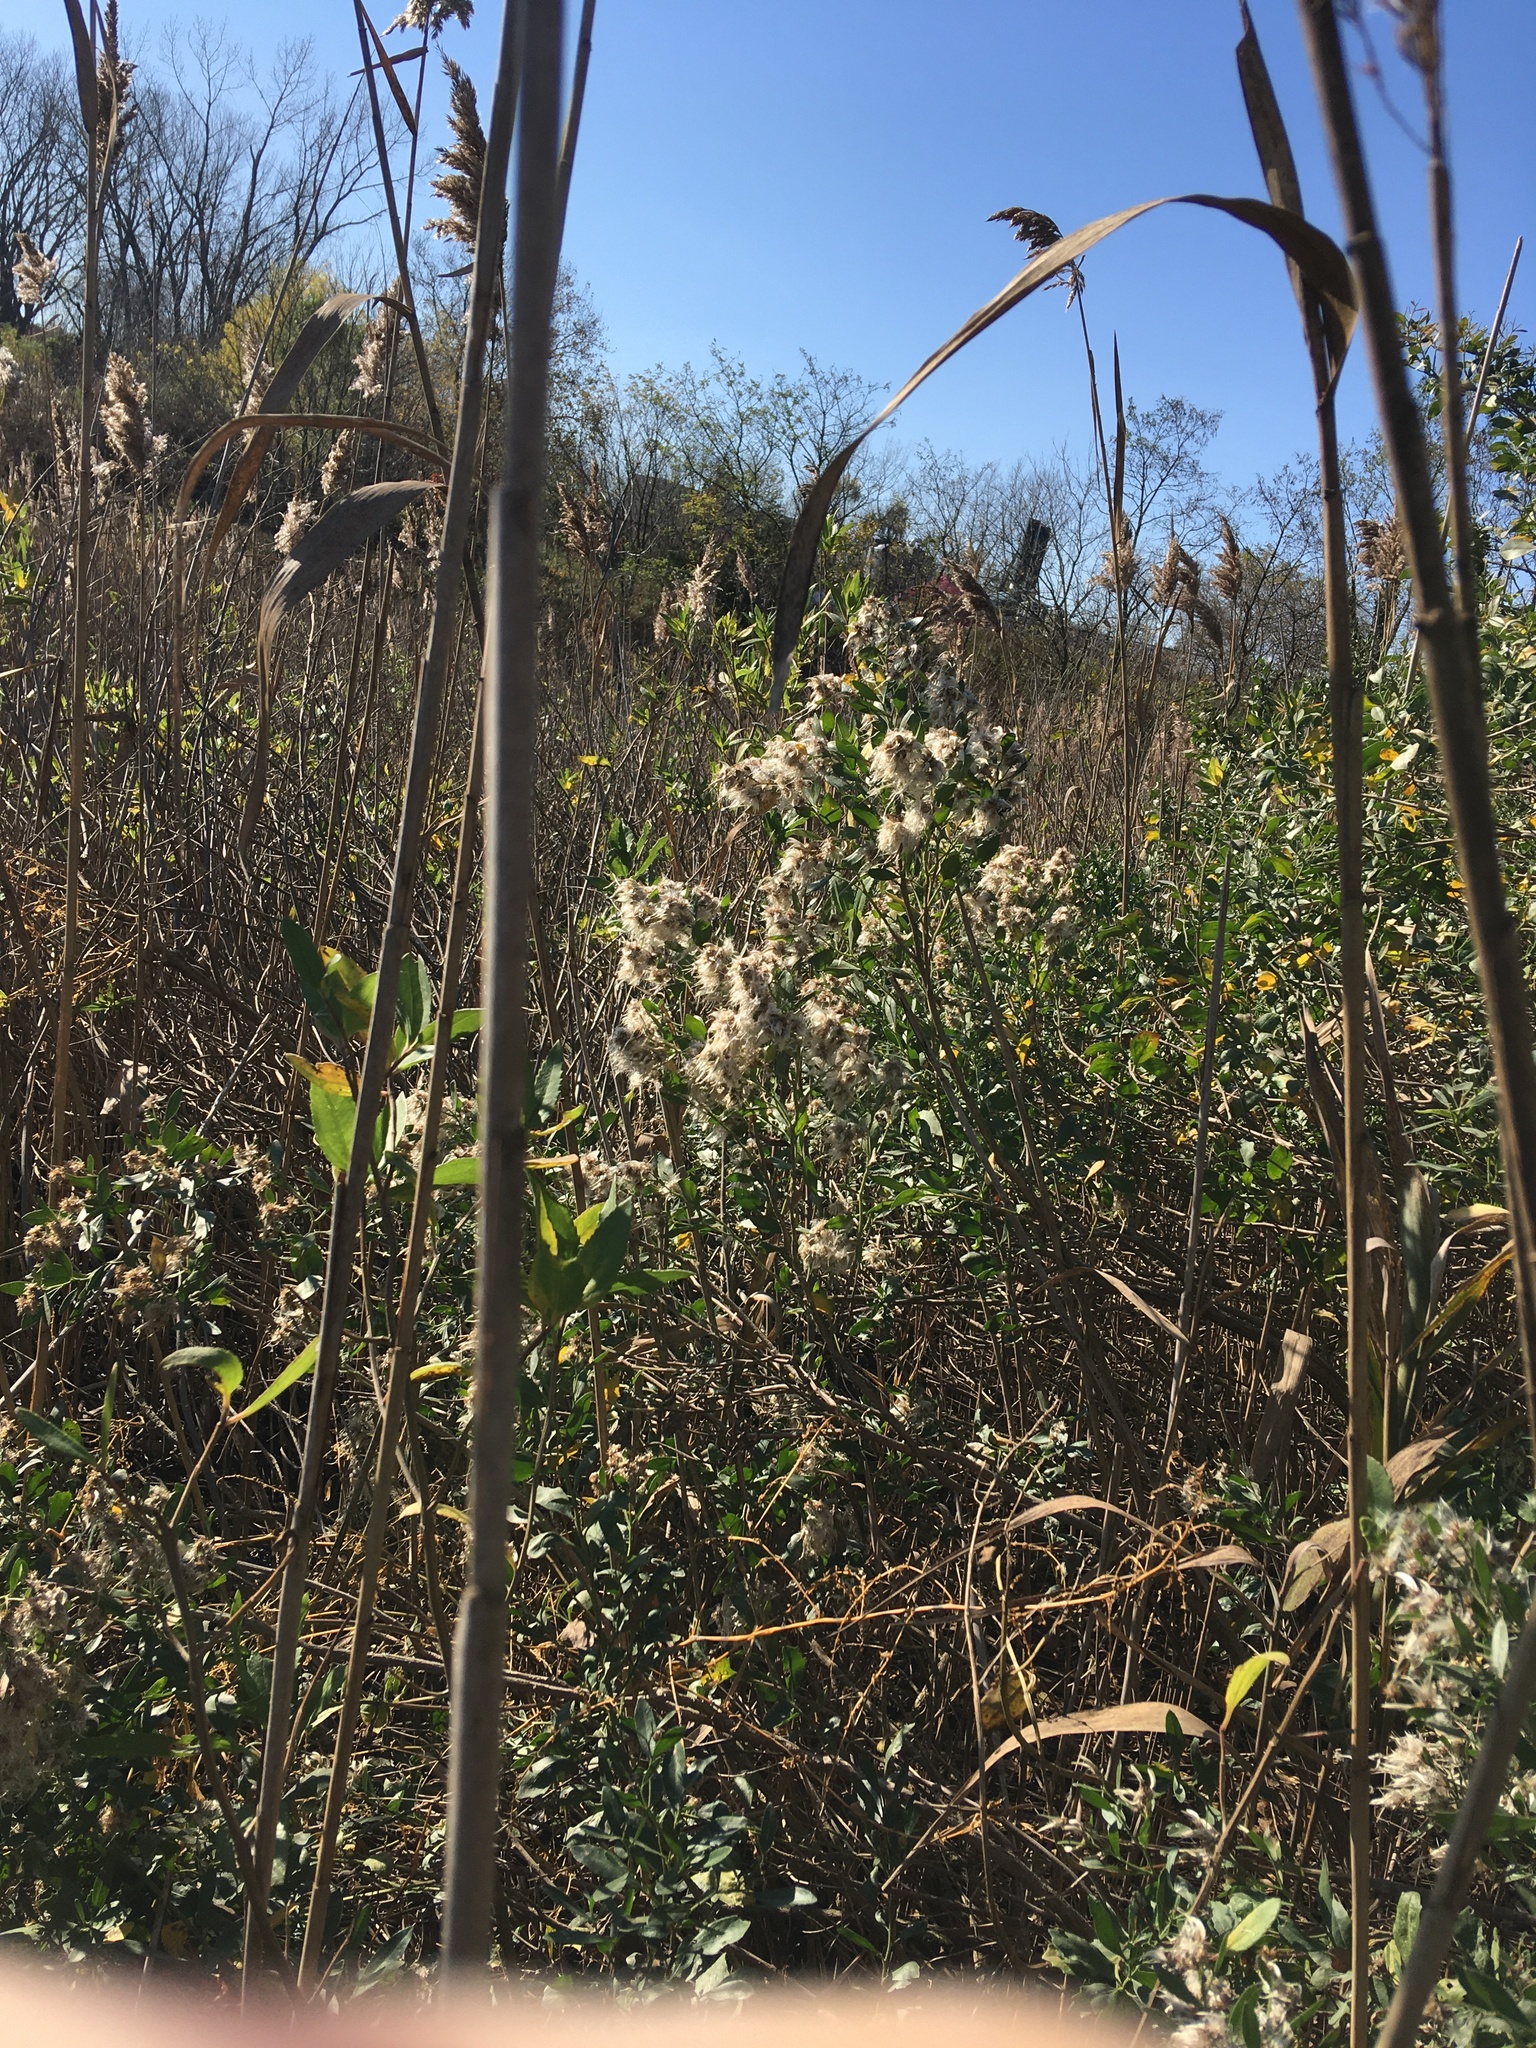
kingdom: Plantae
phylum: Tracheophyta
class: Magnoliopsida
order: Asterales
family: Asteraceae
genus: Baccharis
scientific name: Baccharis halimifolia
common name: Eastern baccharis
